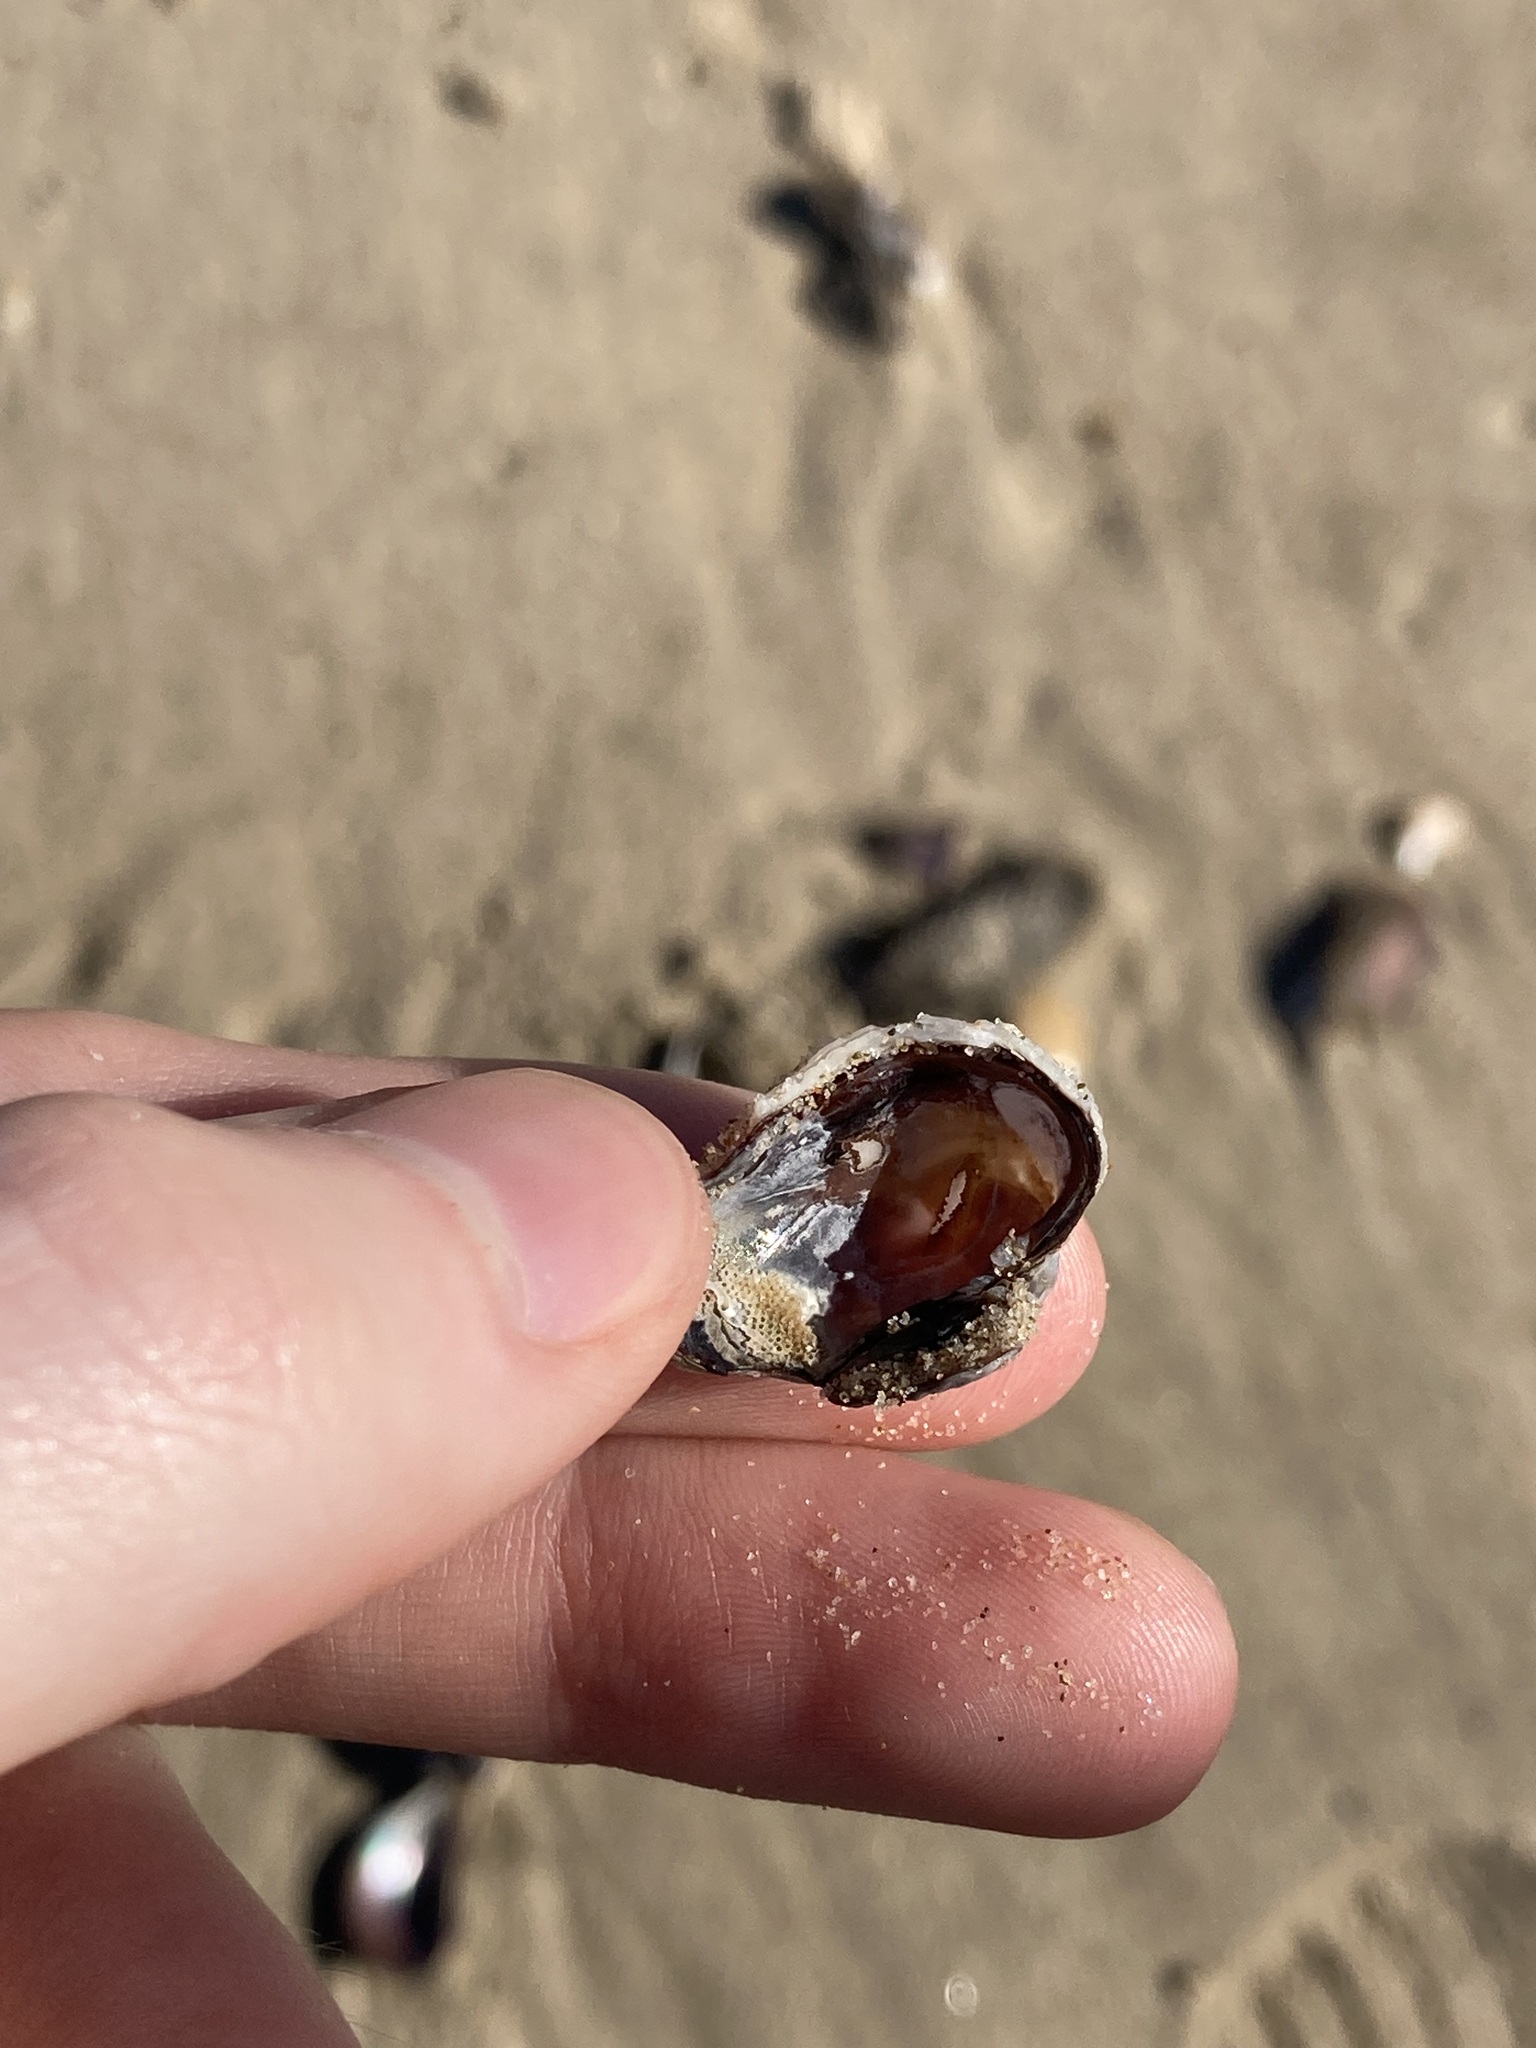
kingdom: Animalia
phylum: Mollusca
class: Bivalvia
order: Venerida
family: Veneridae
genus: Irus
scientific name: Irus cumingii
